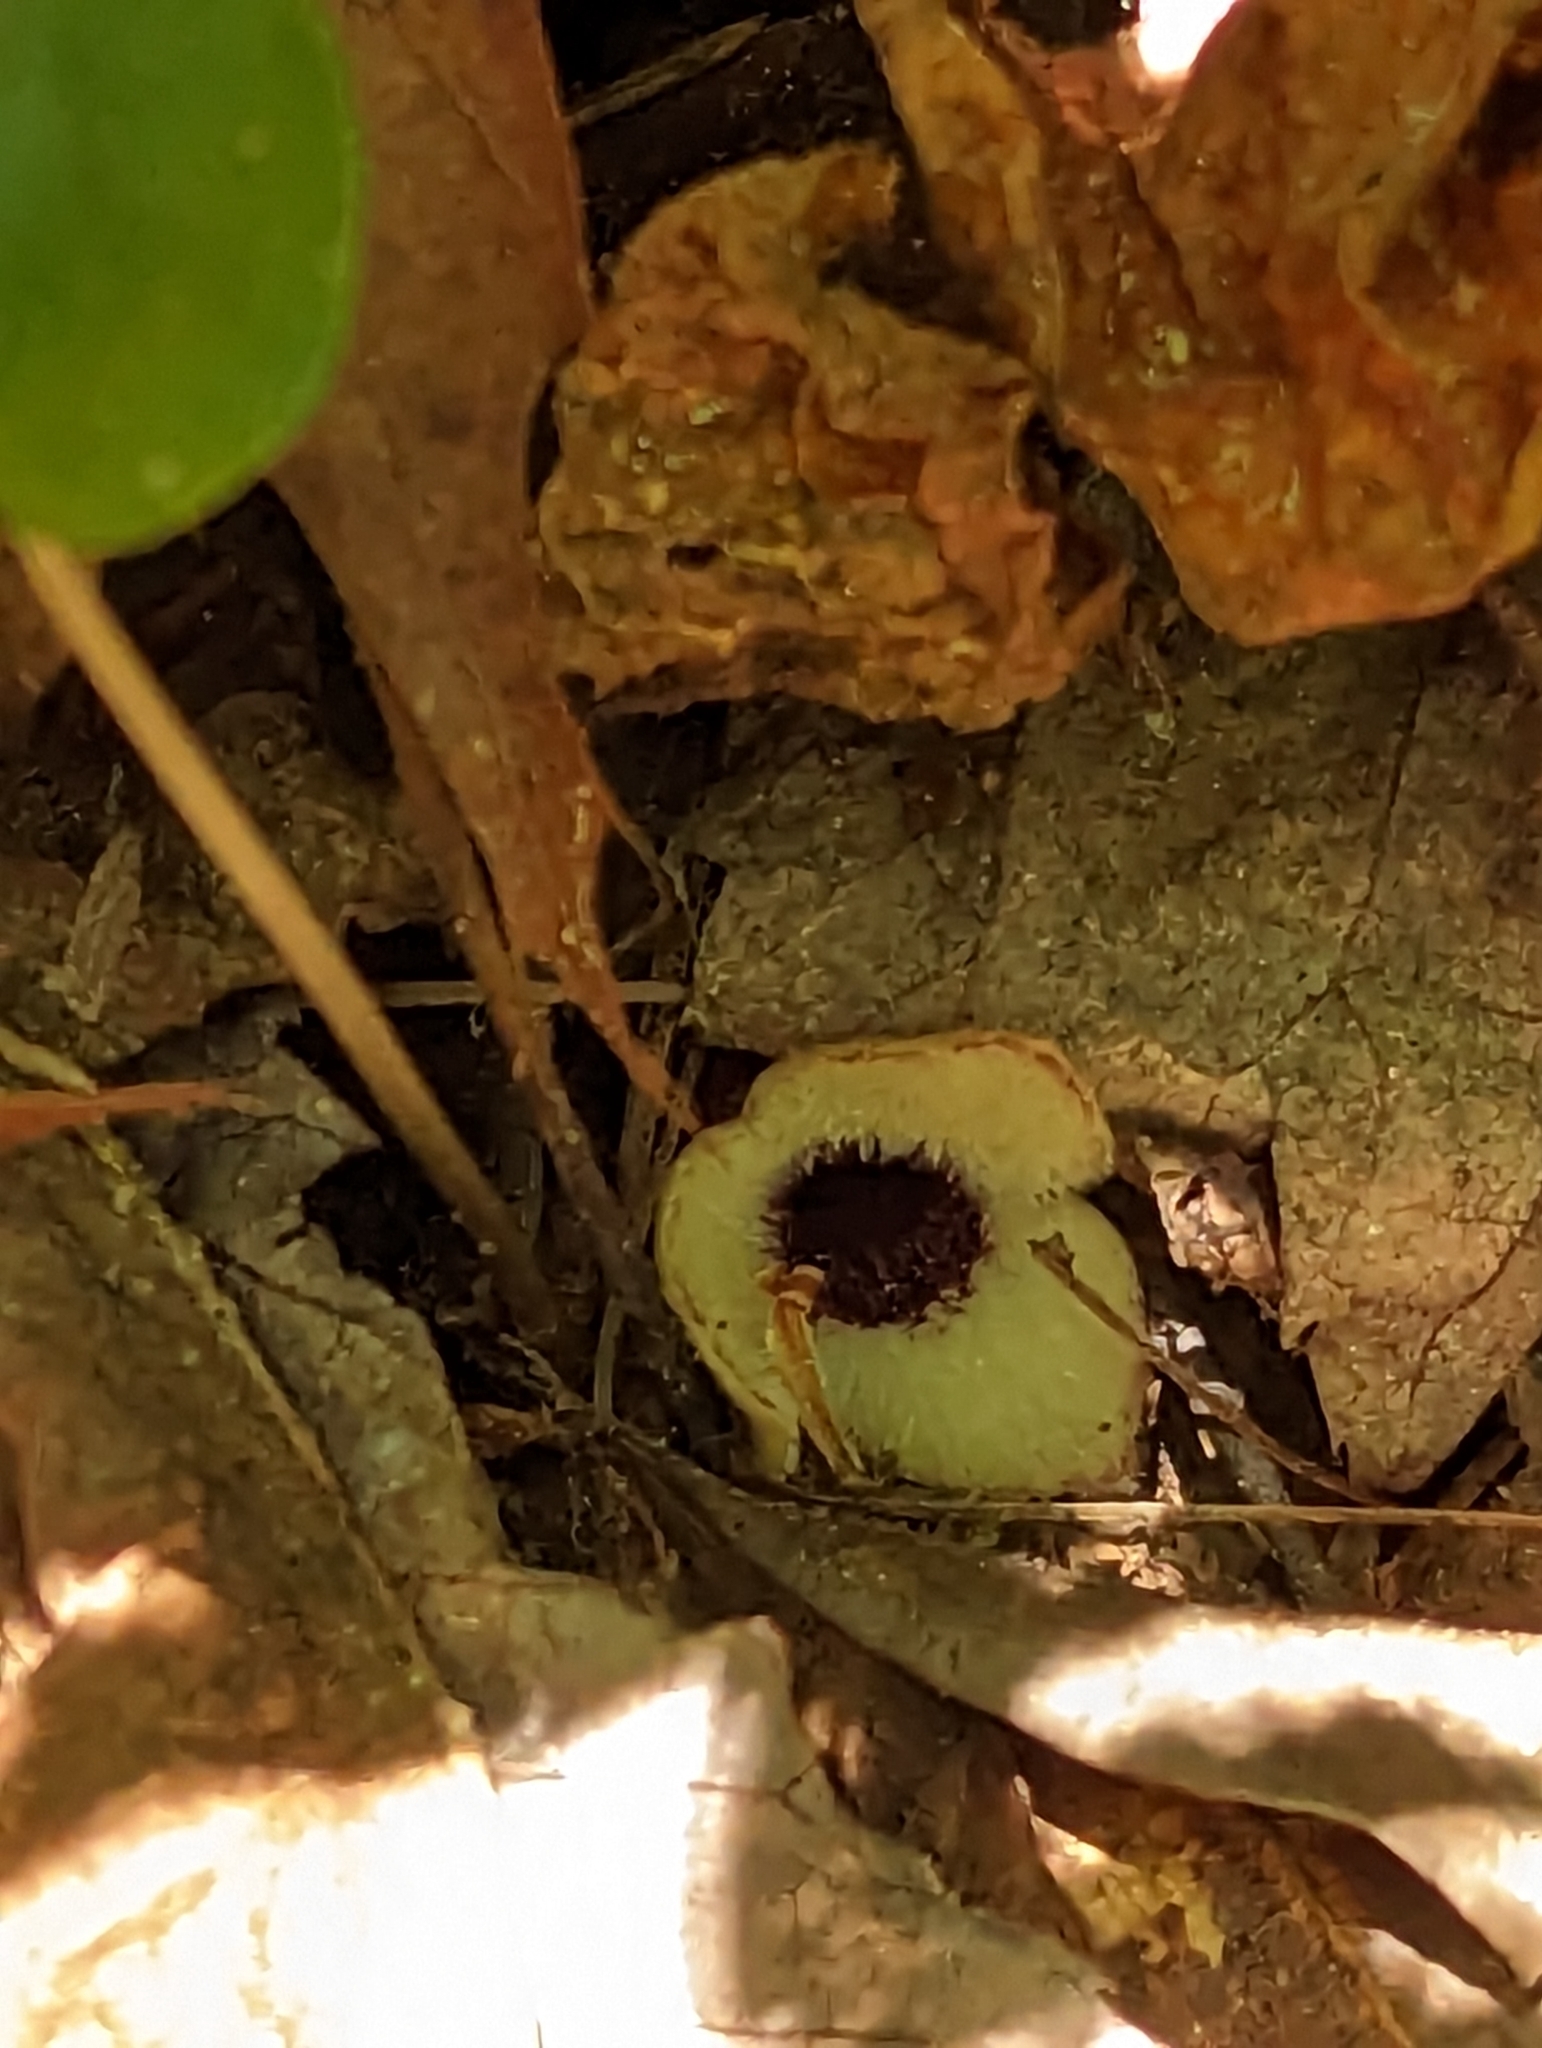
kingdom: Plantae
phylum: Tracheophyta
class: Magnoliopsida
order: Piperales
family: Aristolochiaceae
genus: Hexastylis
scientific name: Hexastylis rosei
